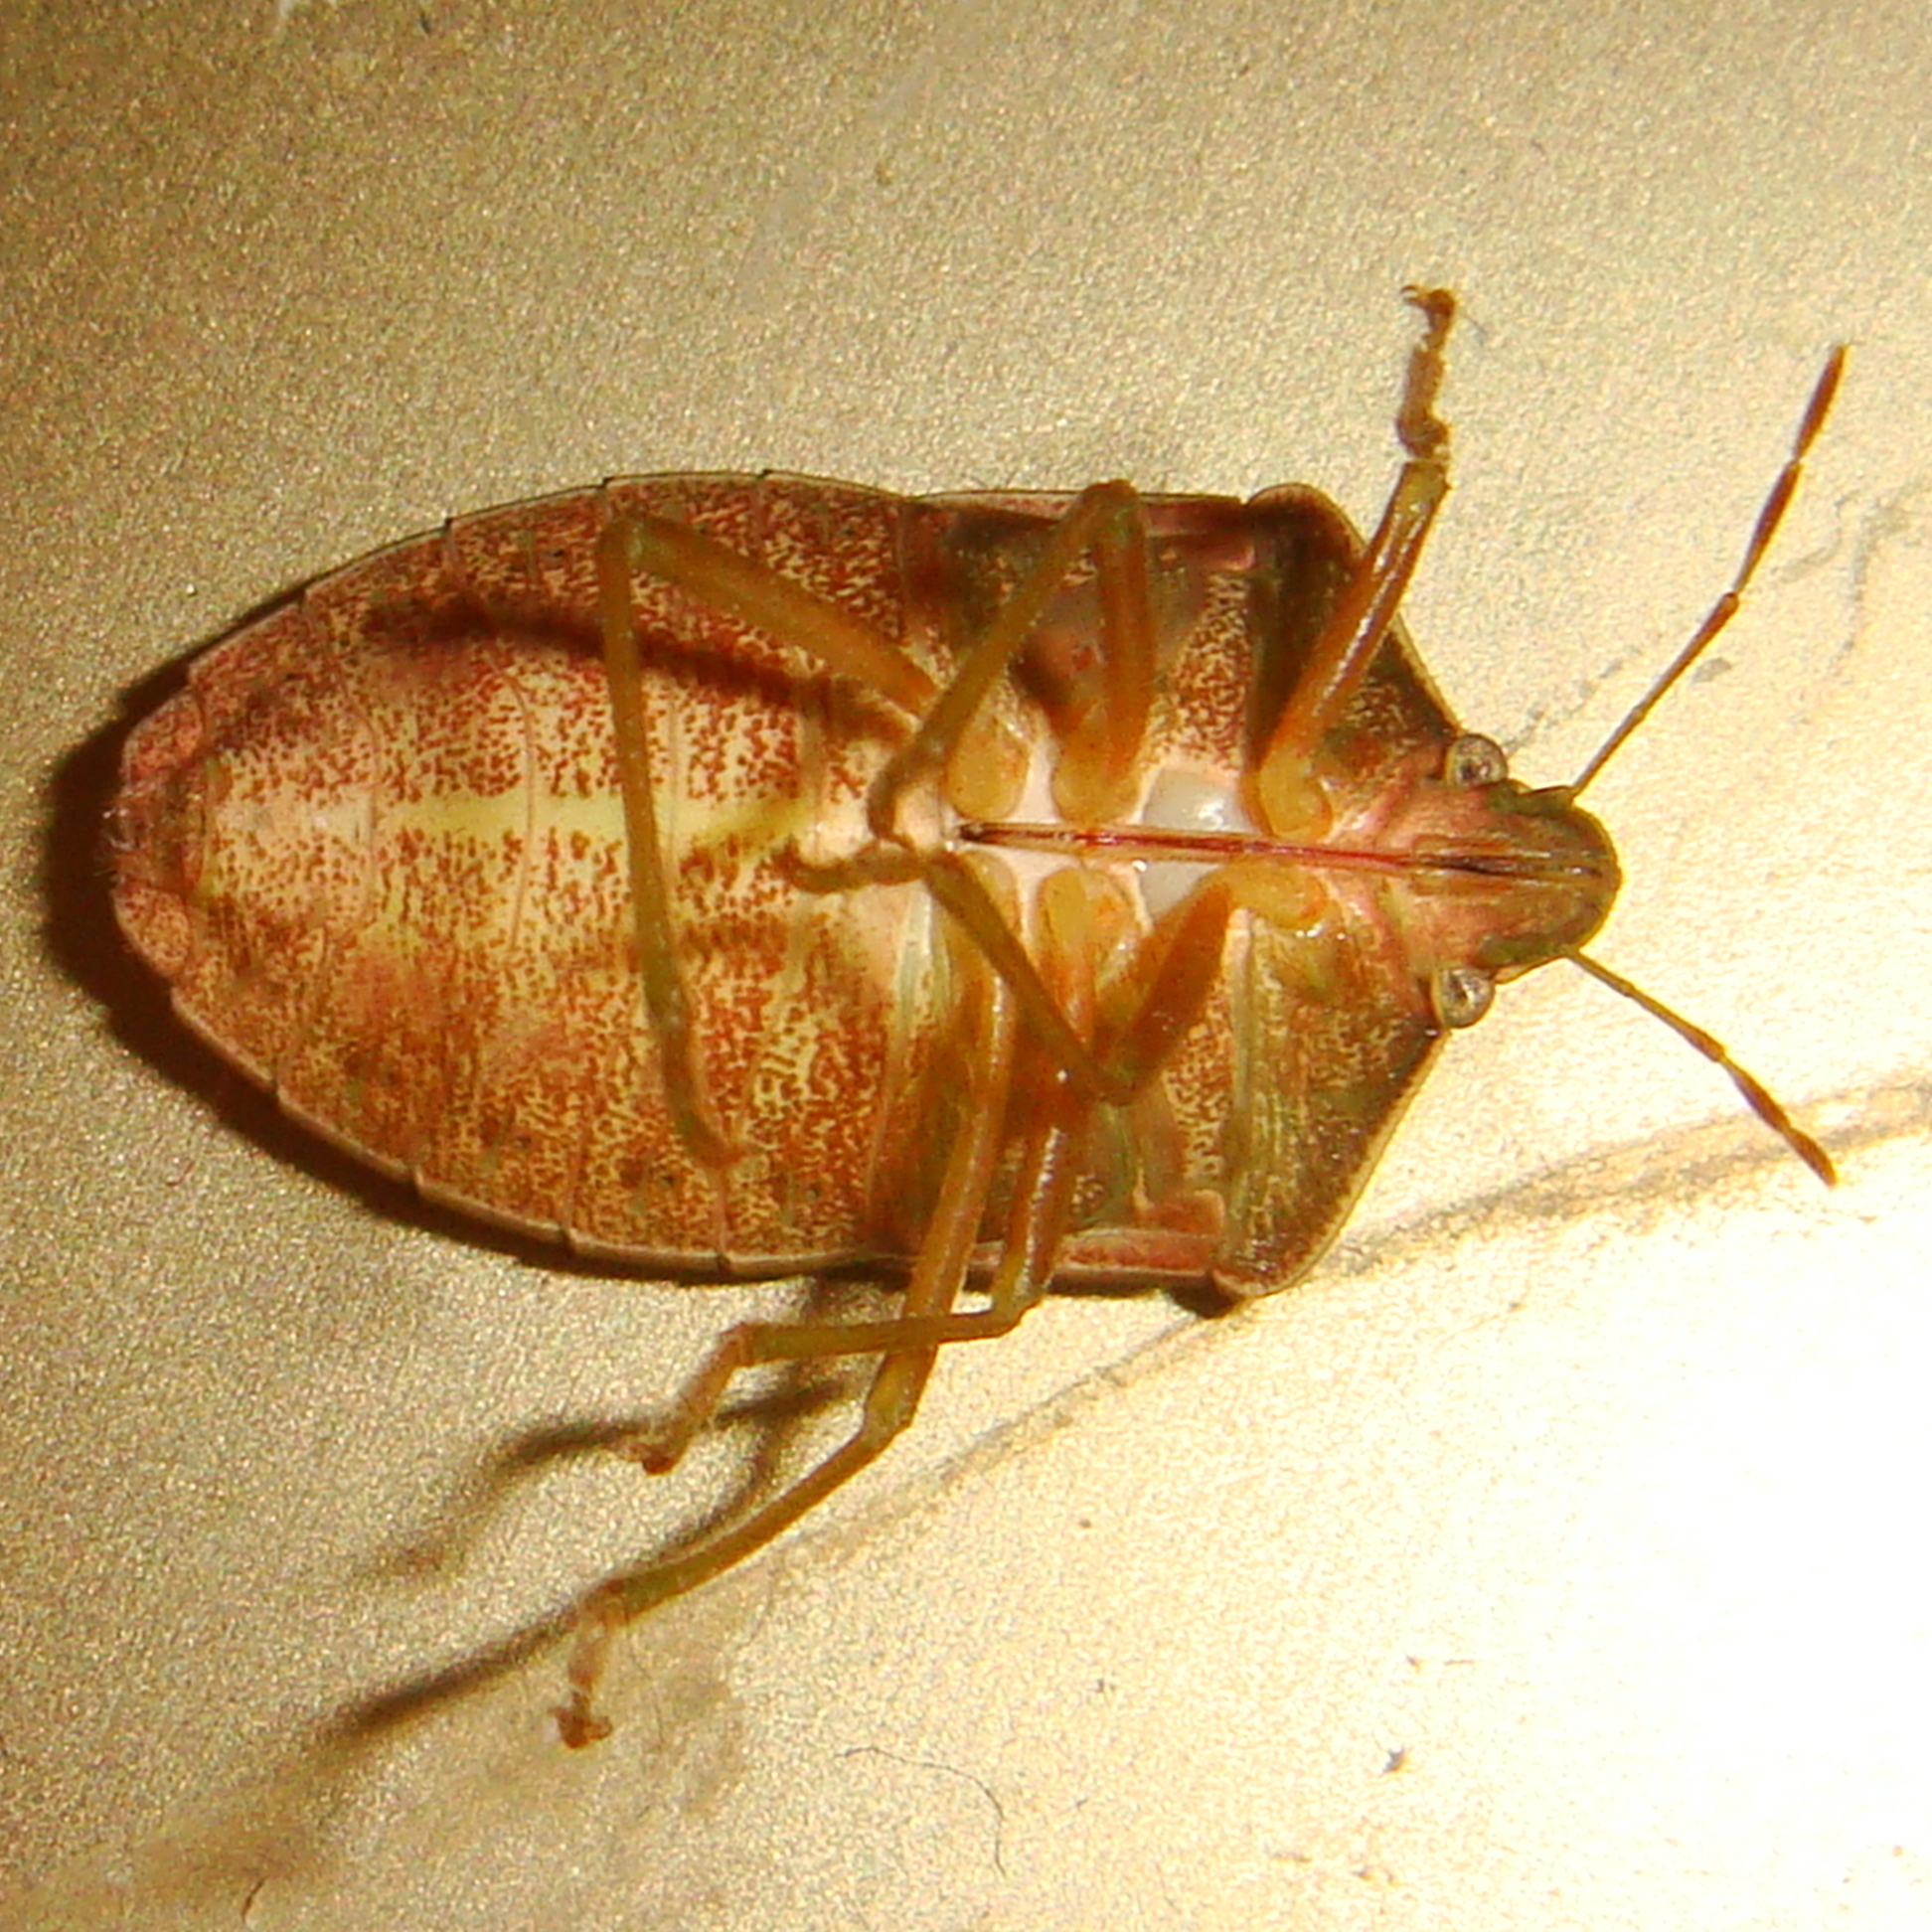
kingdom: Animalia
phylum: Arthropoda
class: Insecta
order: Hemiptera
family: Pentatomidae
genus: Nezara
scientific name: Nezara viridula
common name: Southern green stink bug
